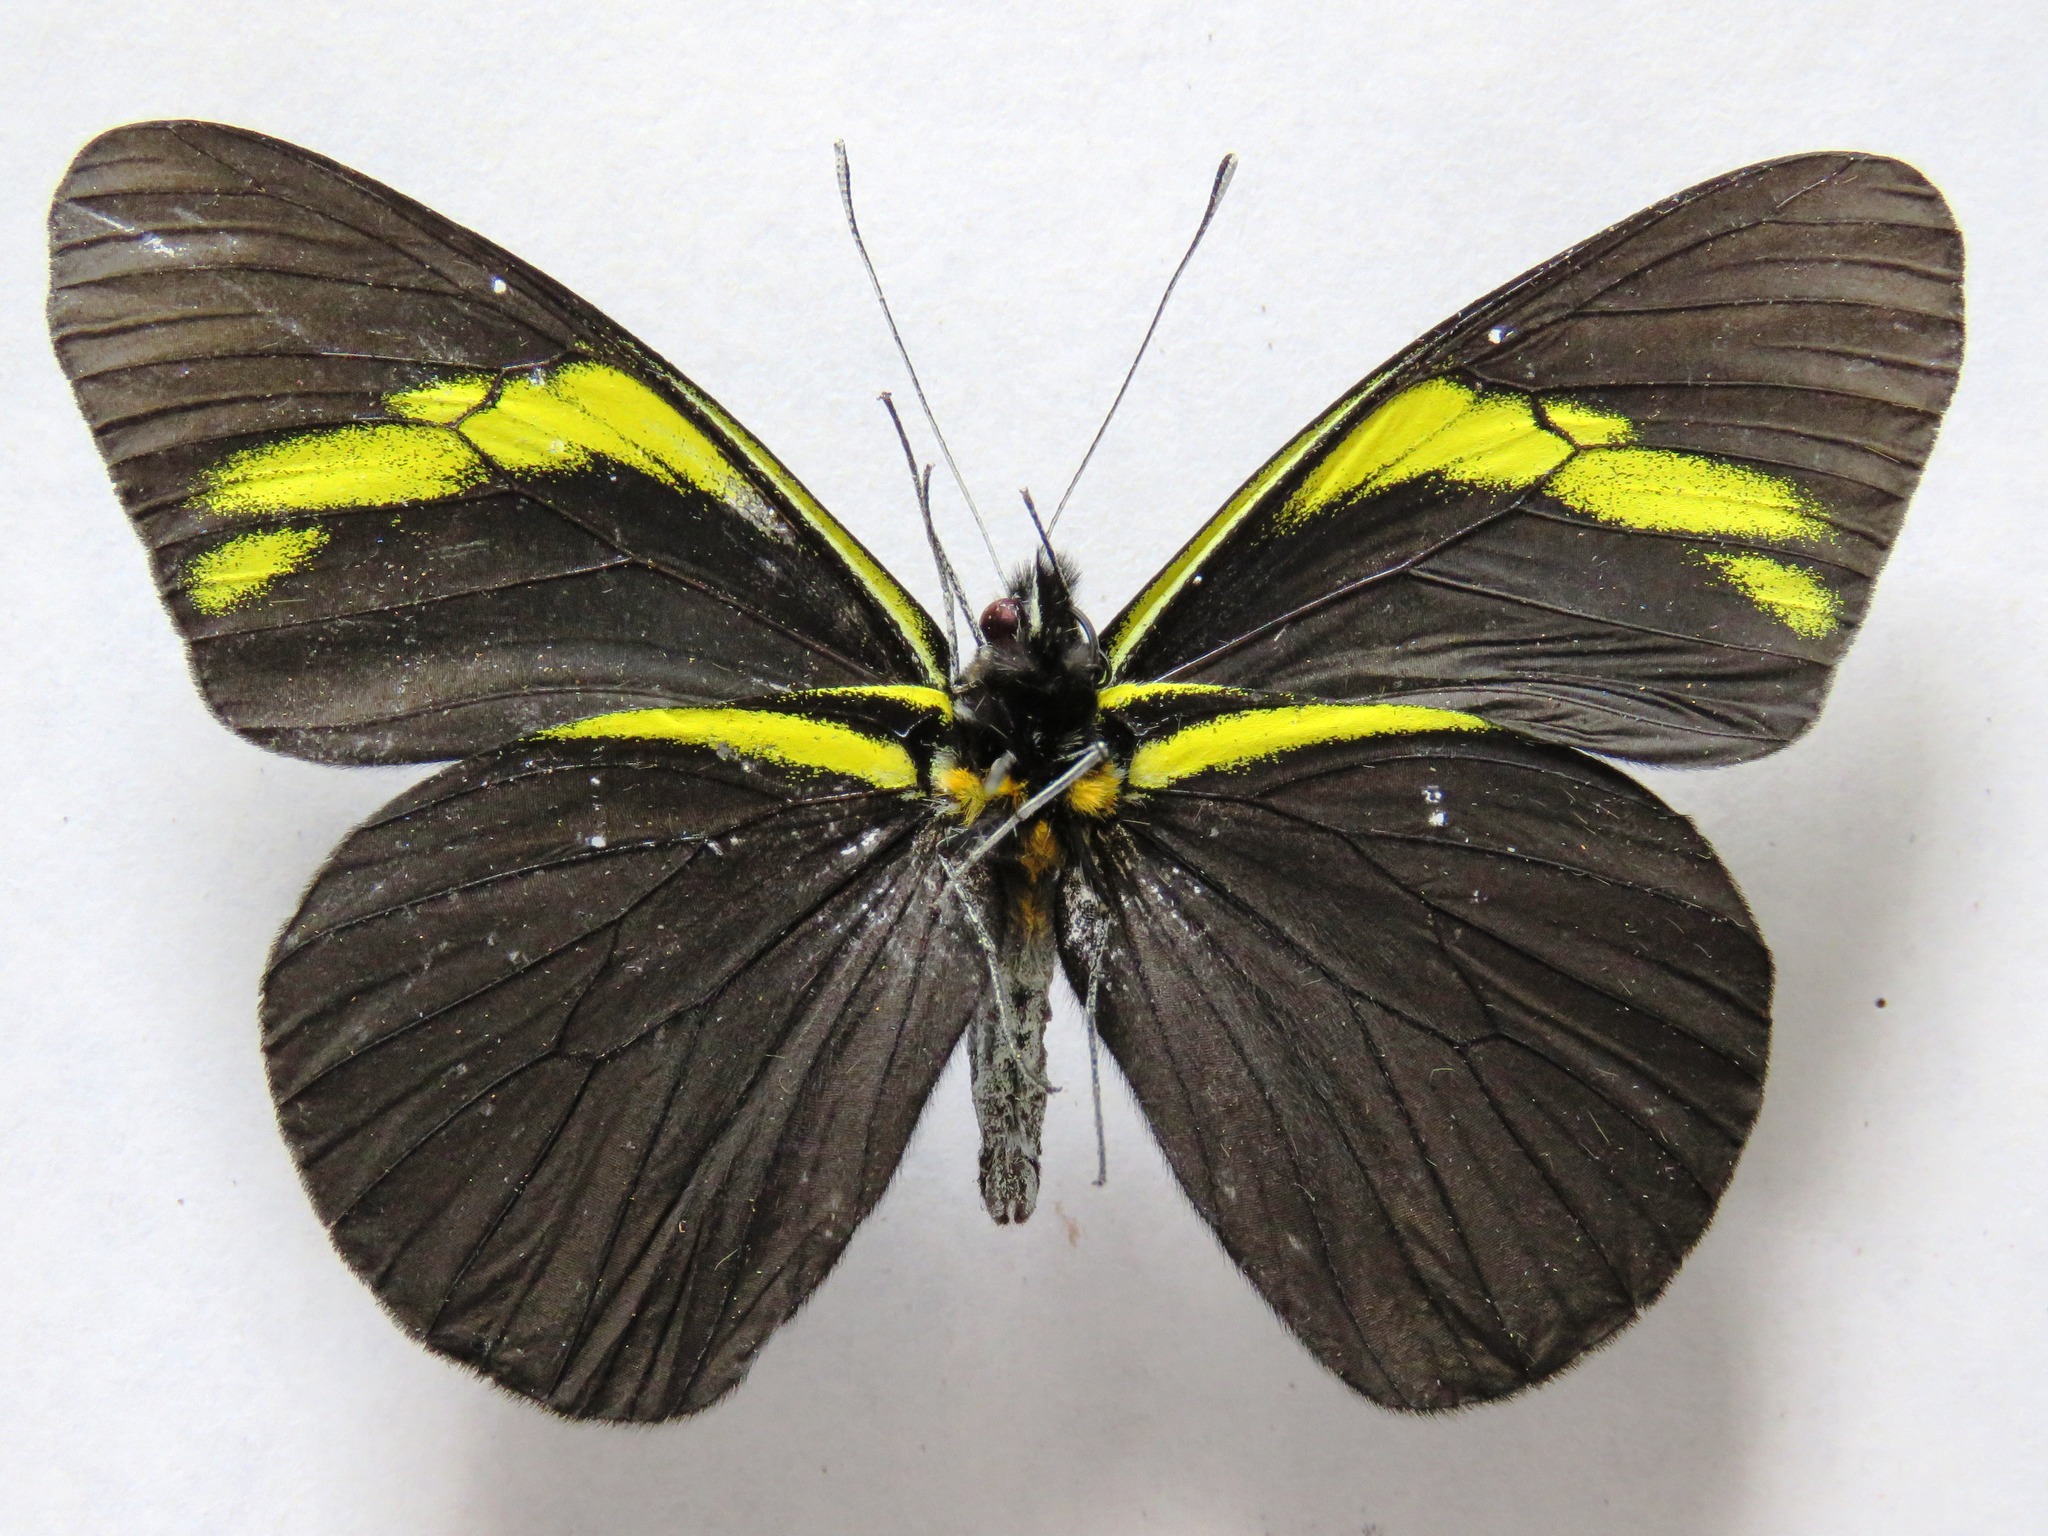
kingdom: Animalia
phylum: Arthropoda
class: Insecta
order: Lepidoptera
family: Pieridae
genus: Pereute
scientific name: Pereute charops
